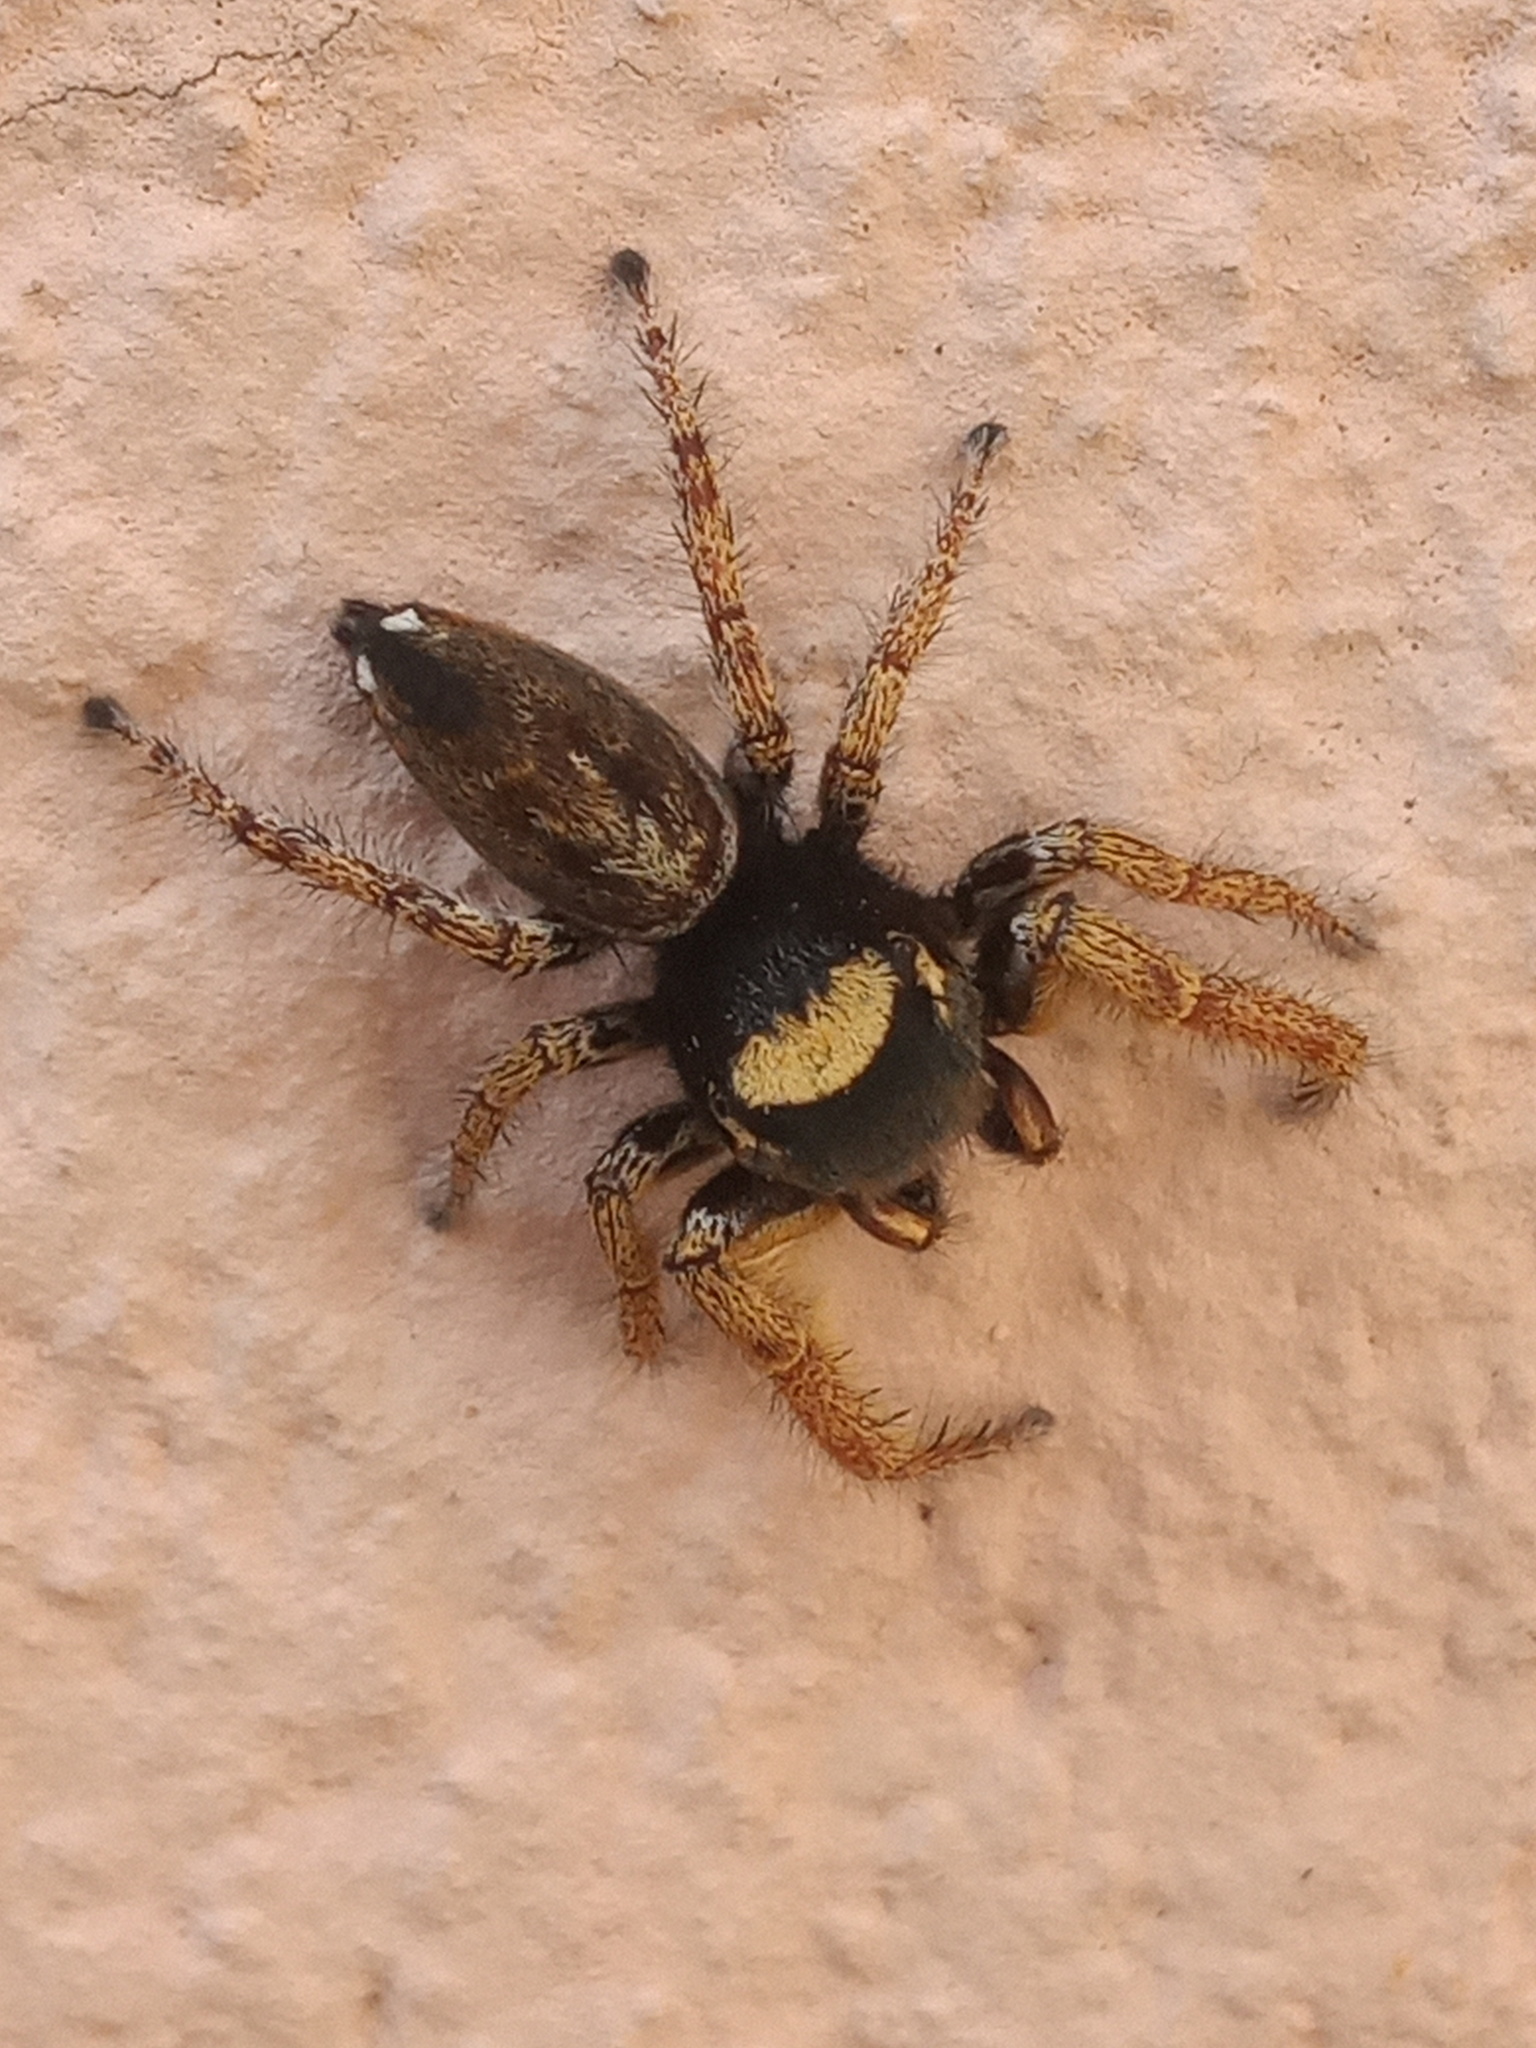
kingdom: Animalia
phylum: Arthropoda
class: Arachnida
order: Araneae
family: Salticidae
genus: Phidippus
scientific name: Phidippus arizonensis
